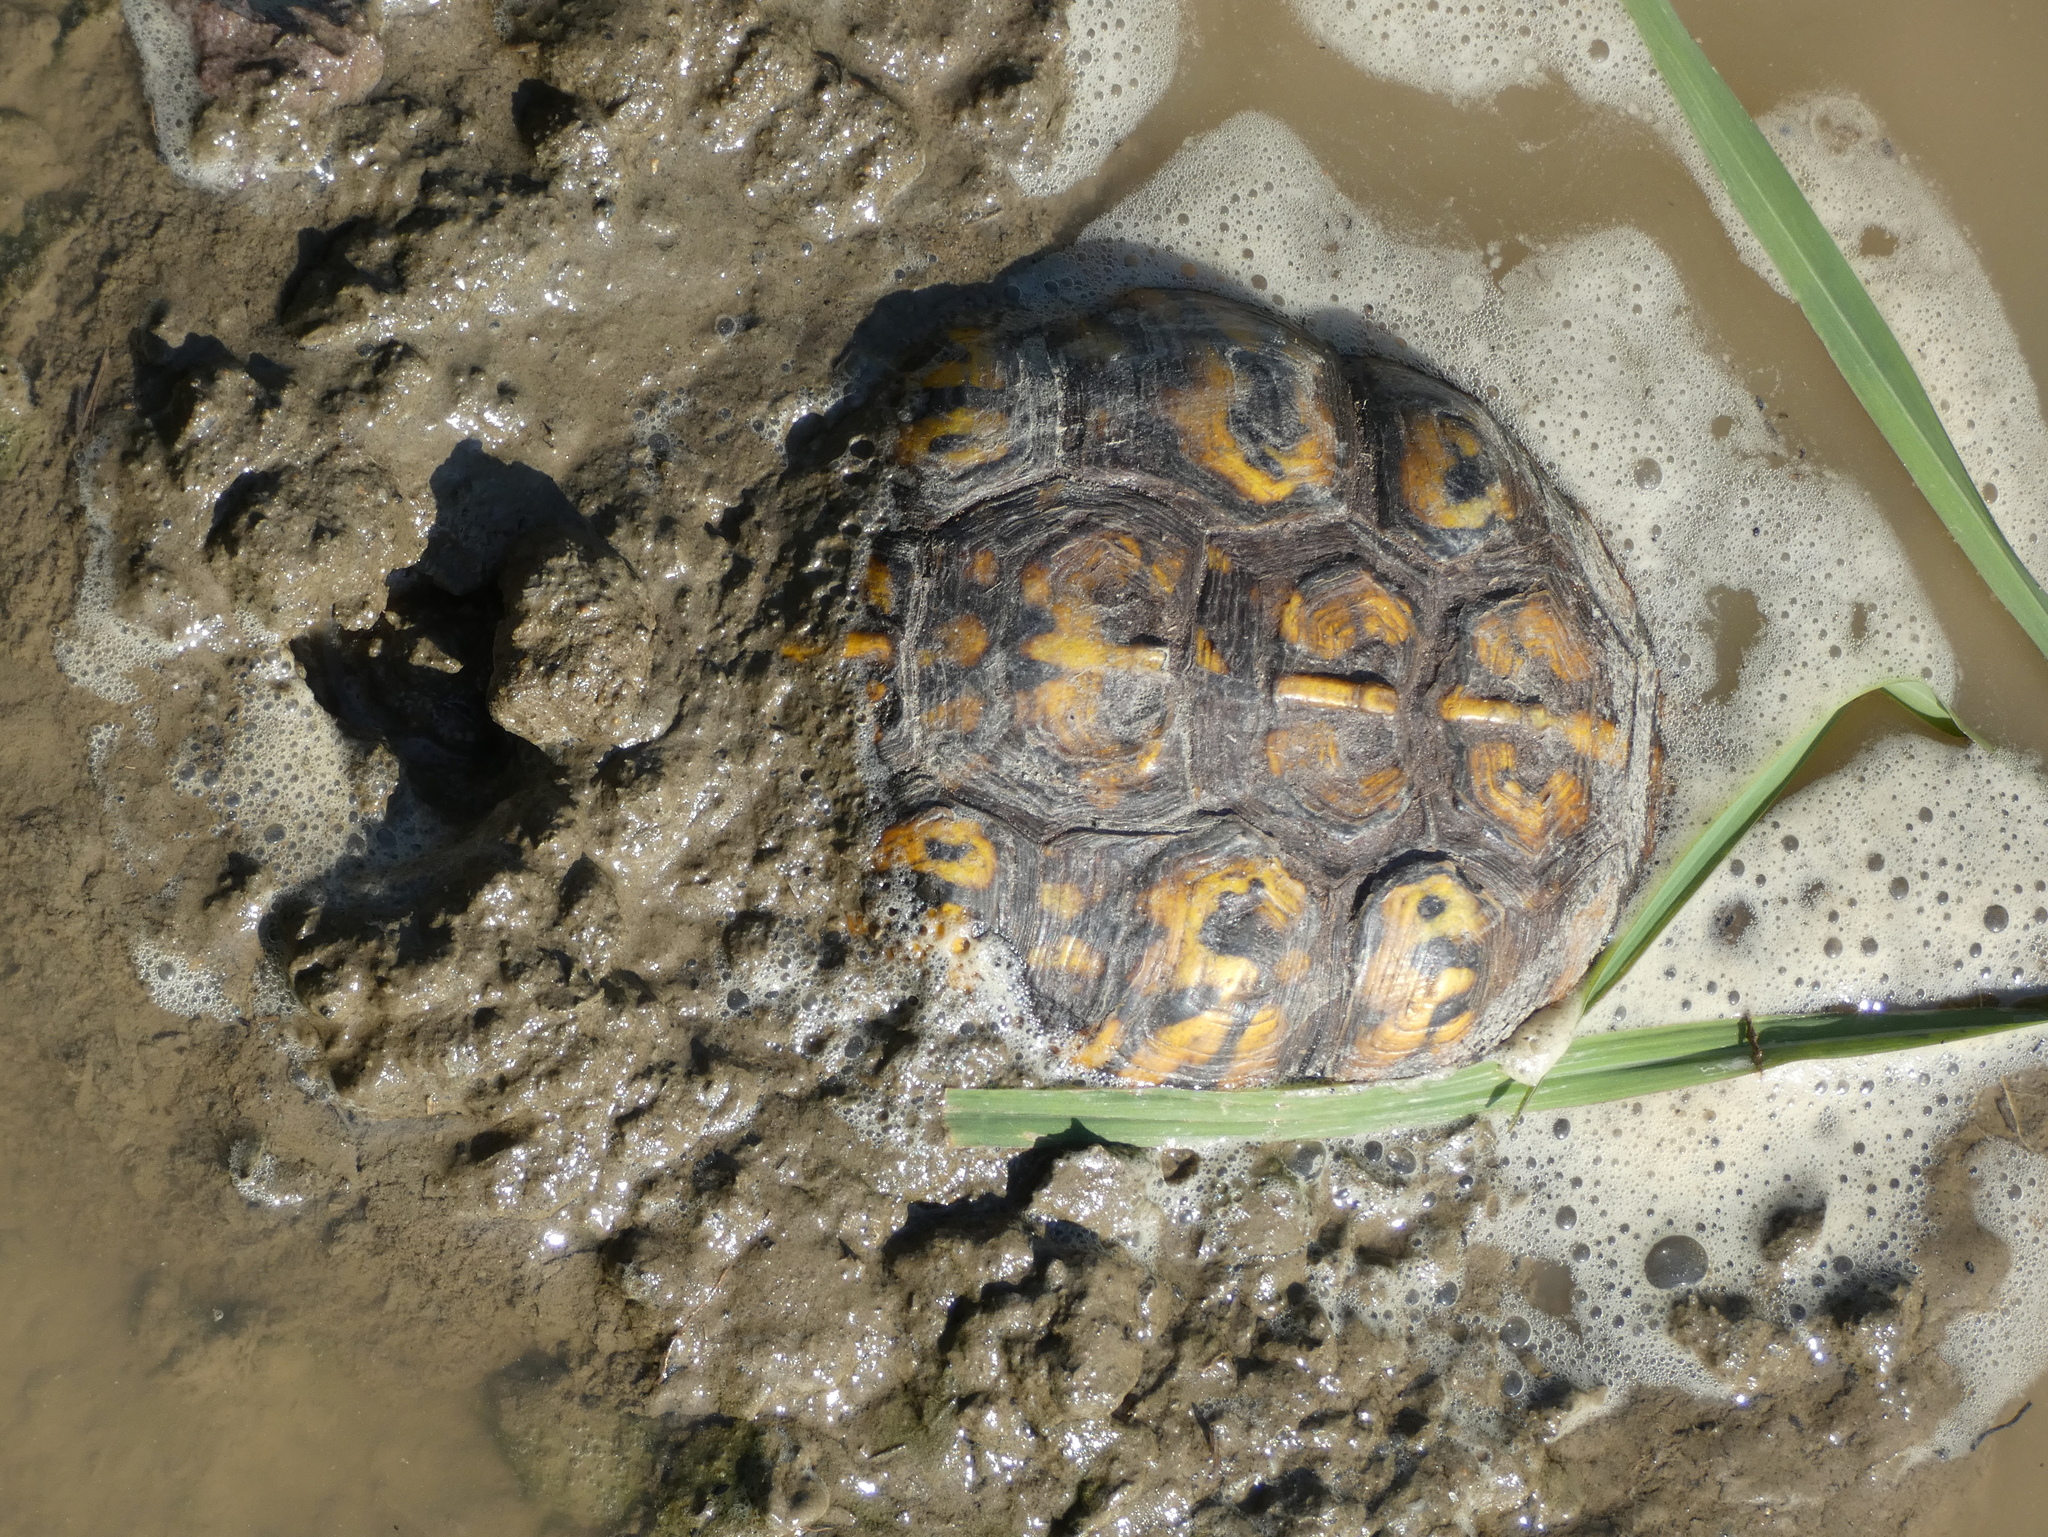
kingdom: Animalia
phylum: Chordata
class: Testudines
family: Emydidae
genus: Terrapene
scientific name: Terrapene carolina
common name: Common box turtle
